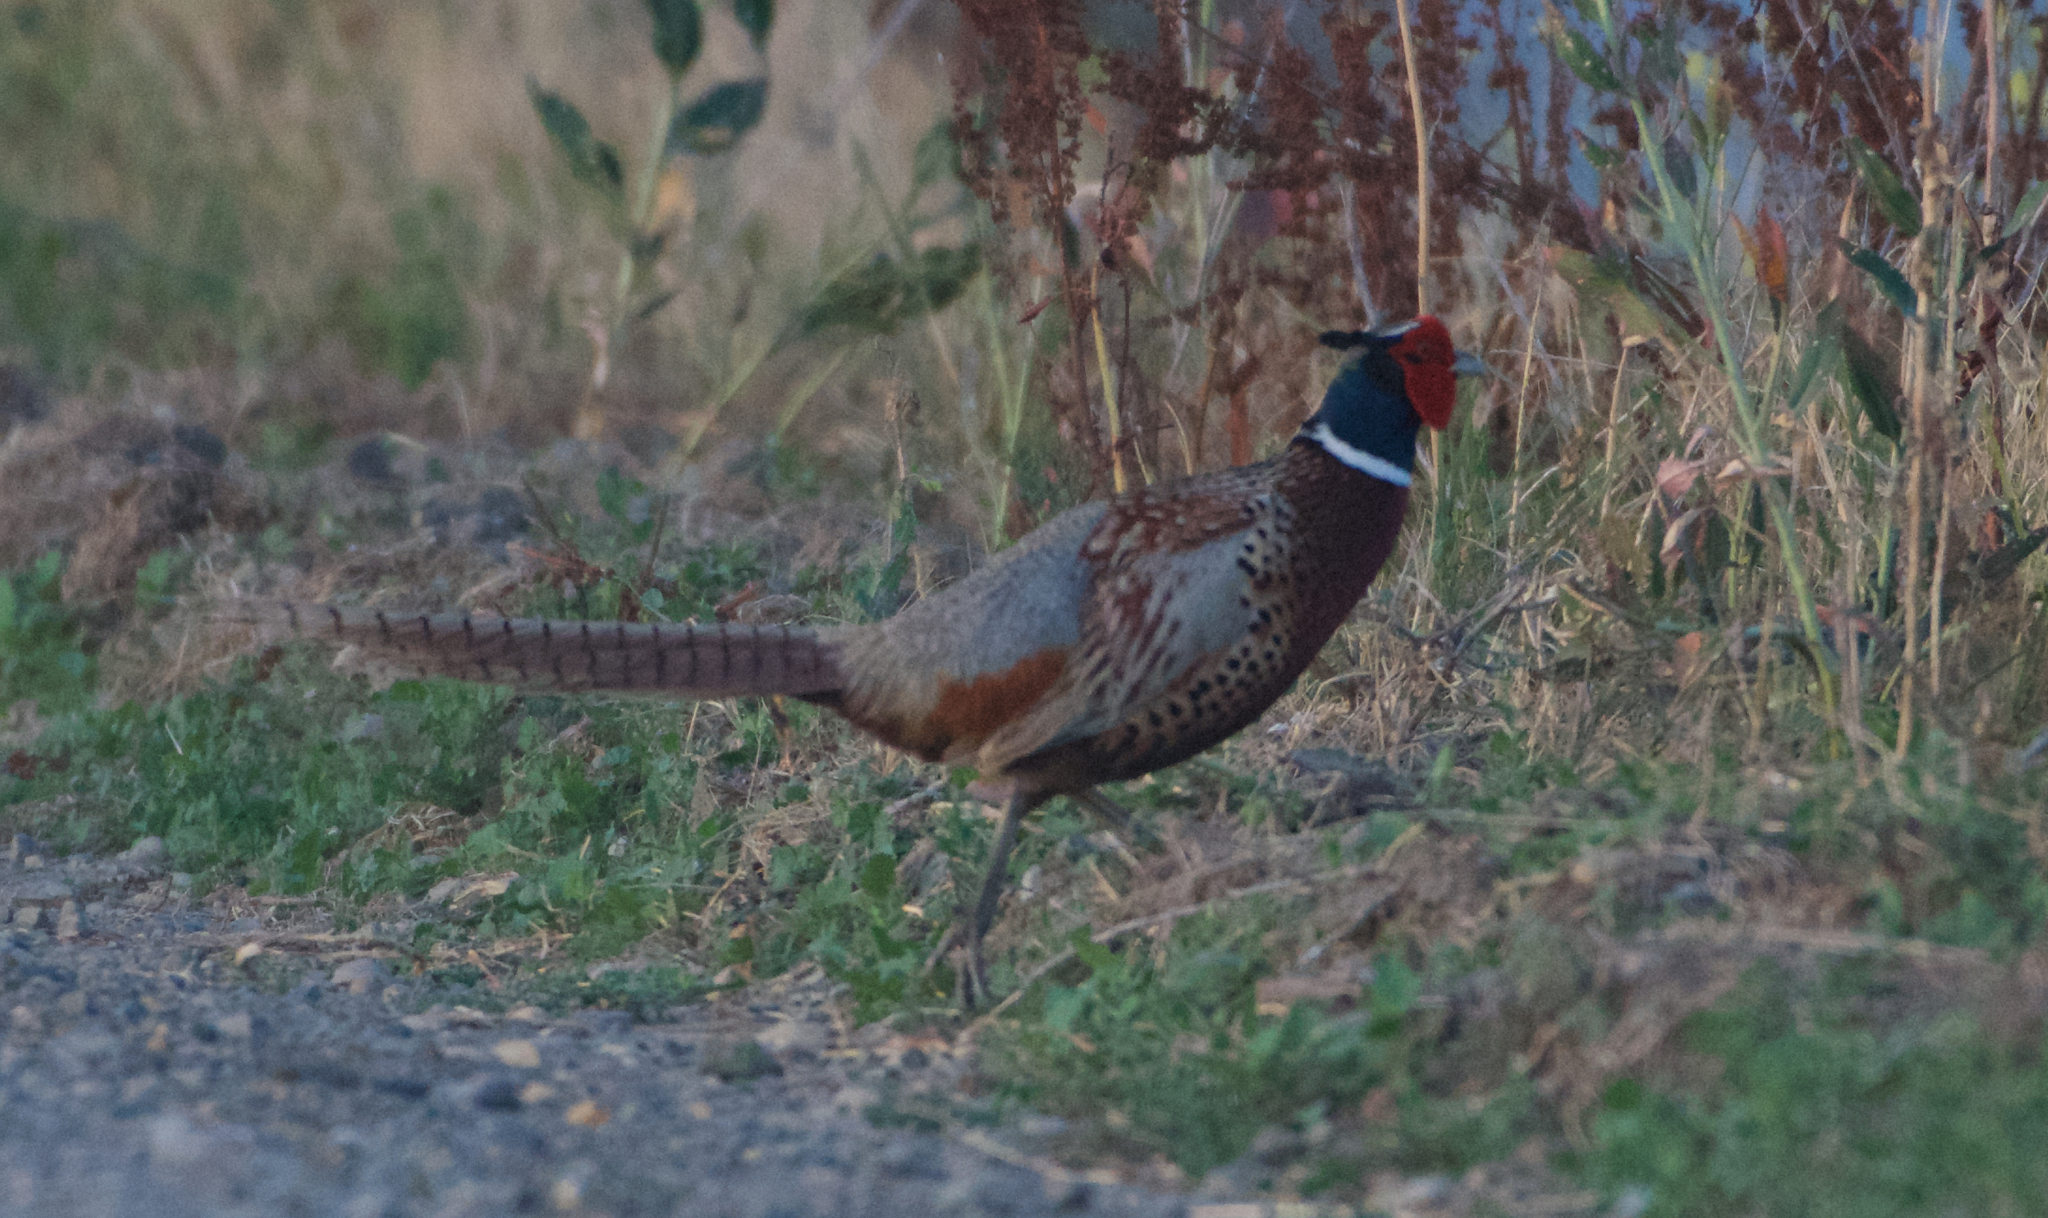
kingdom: Animalia
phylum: Chordata
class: Aves
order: Galliformes
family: Phasianidae
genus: Phasianus
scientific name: Phasianus colchicus
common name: Common pheasant
